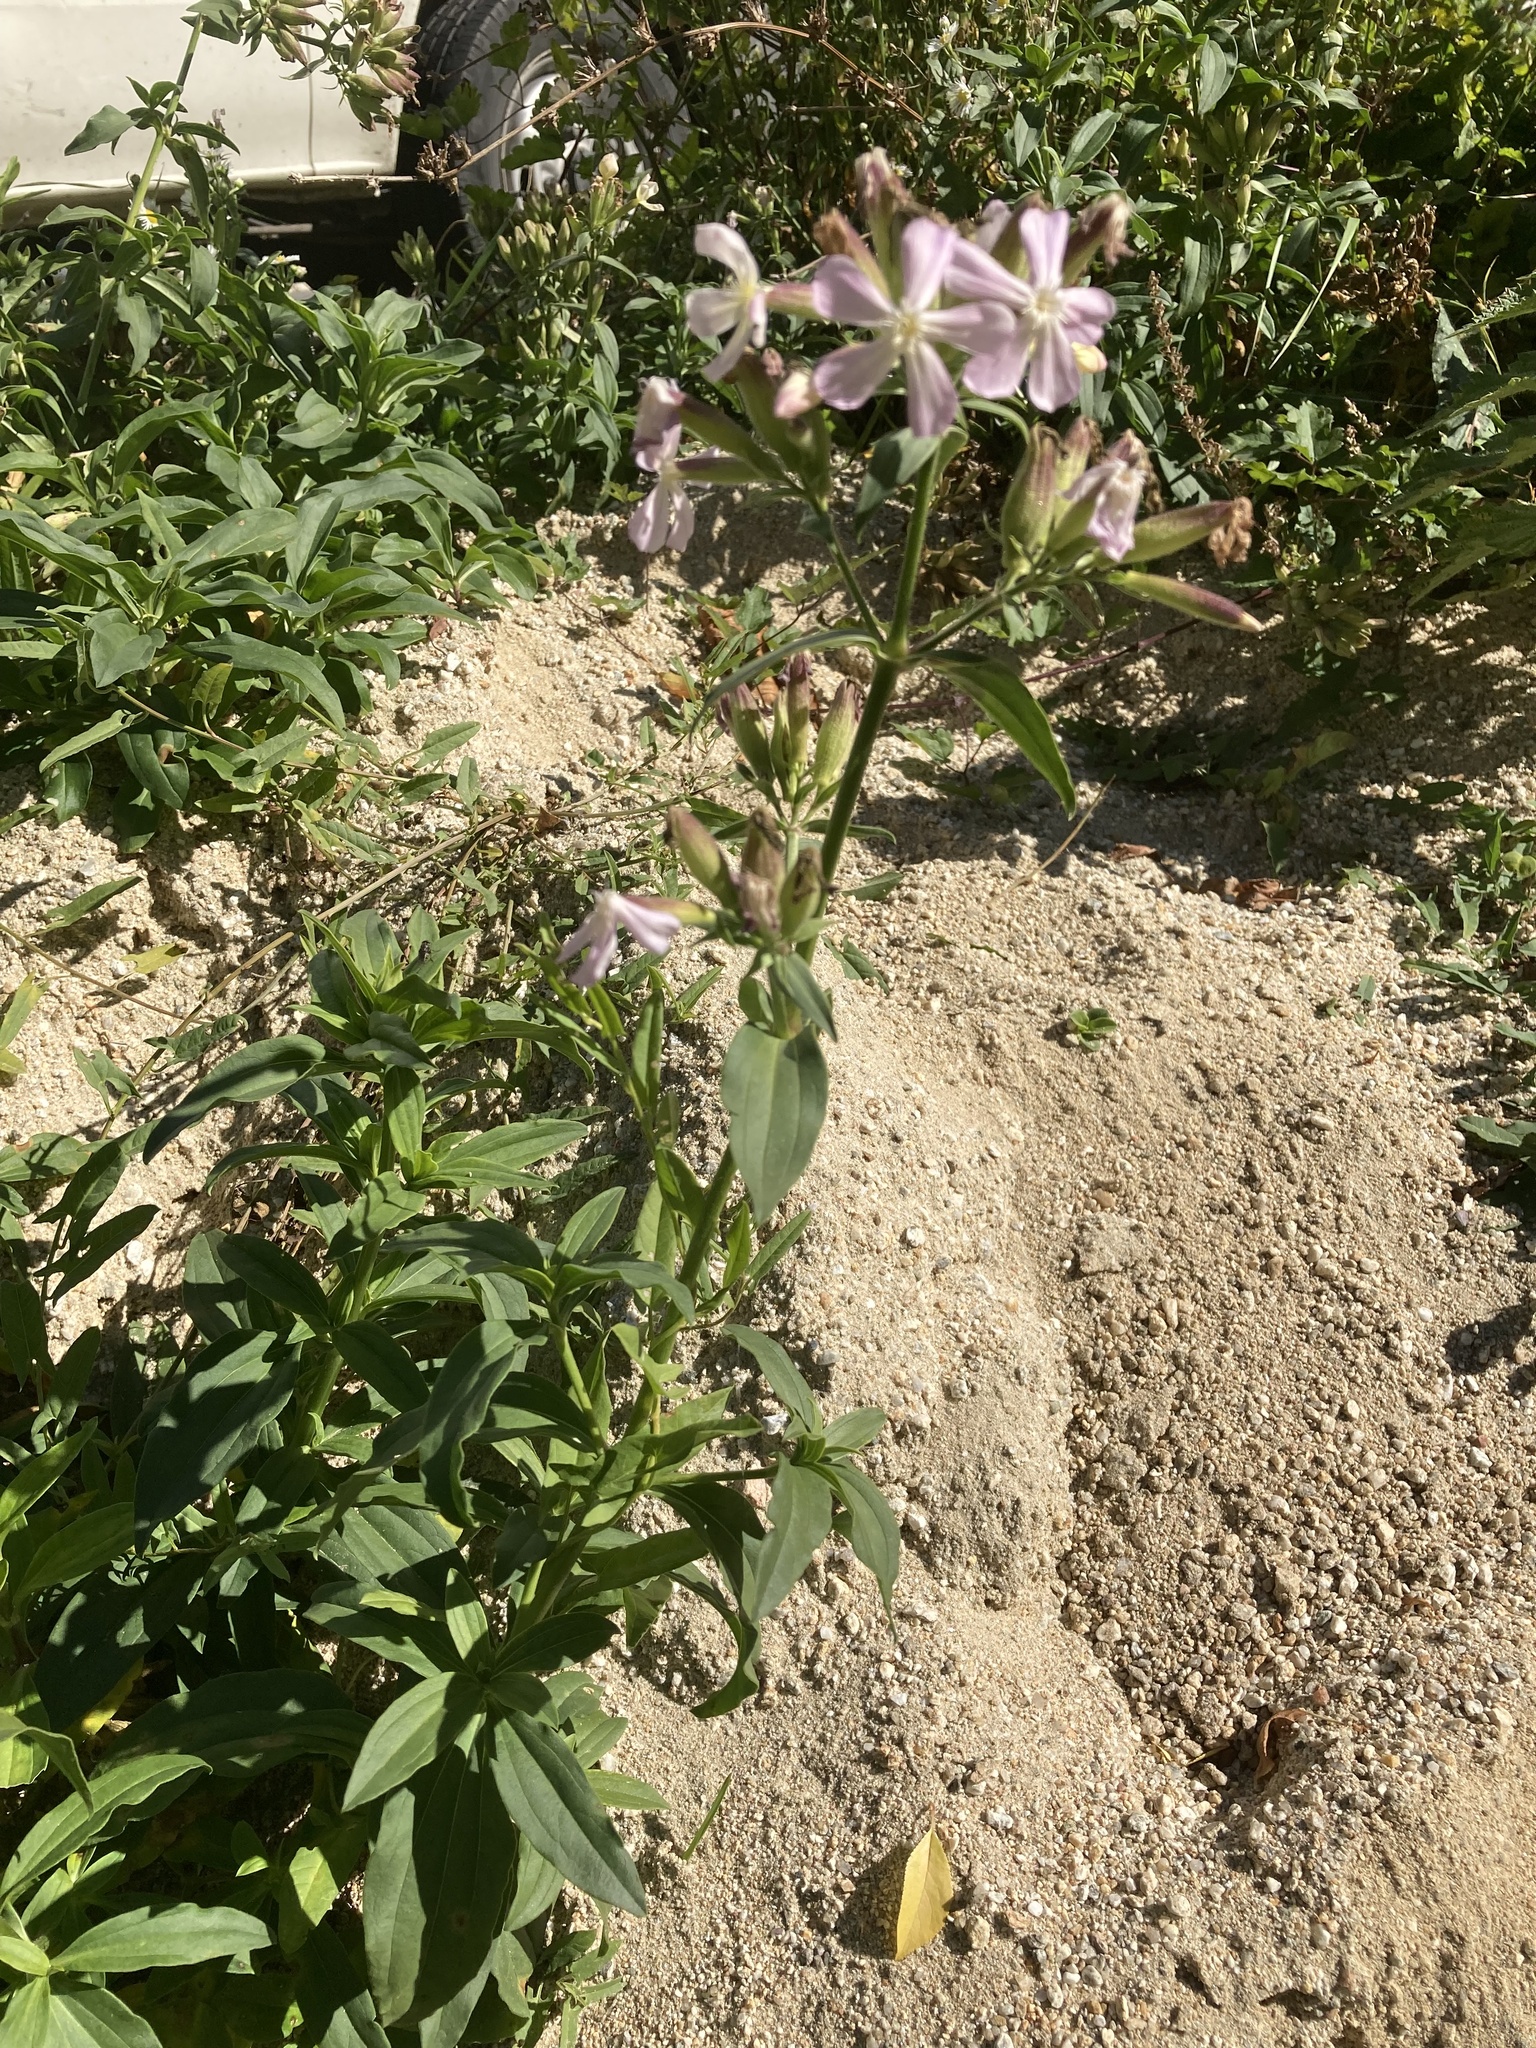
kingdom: Plantae
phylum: Tracheophyta
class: Magnoliopsida
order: Caryophyllales
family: Caryophyllaceae
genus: Saponaria
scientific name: Saponaria officinalis
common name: Soapwort
